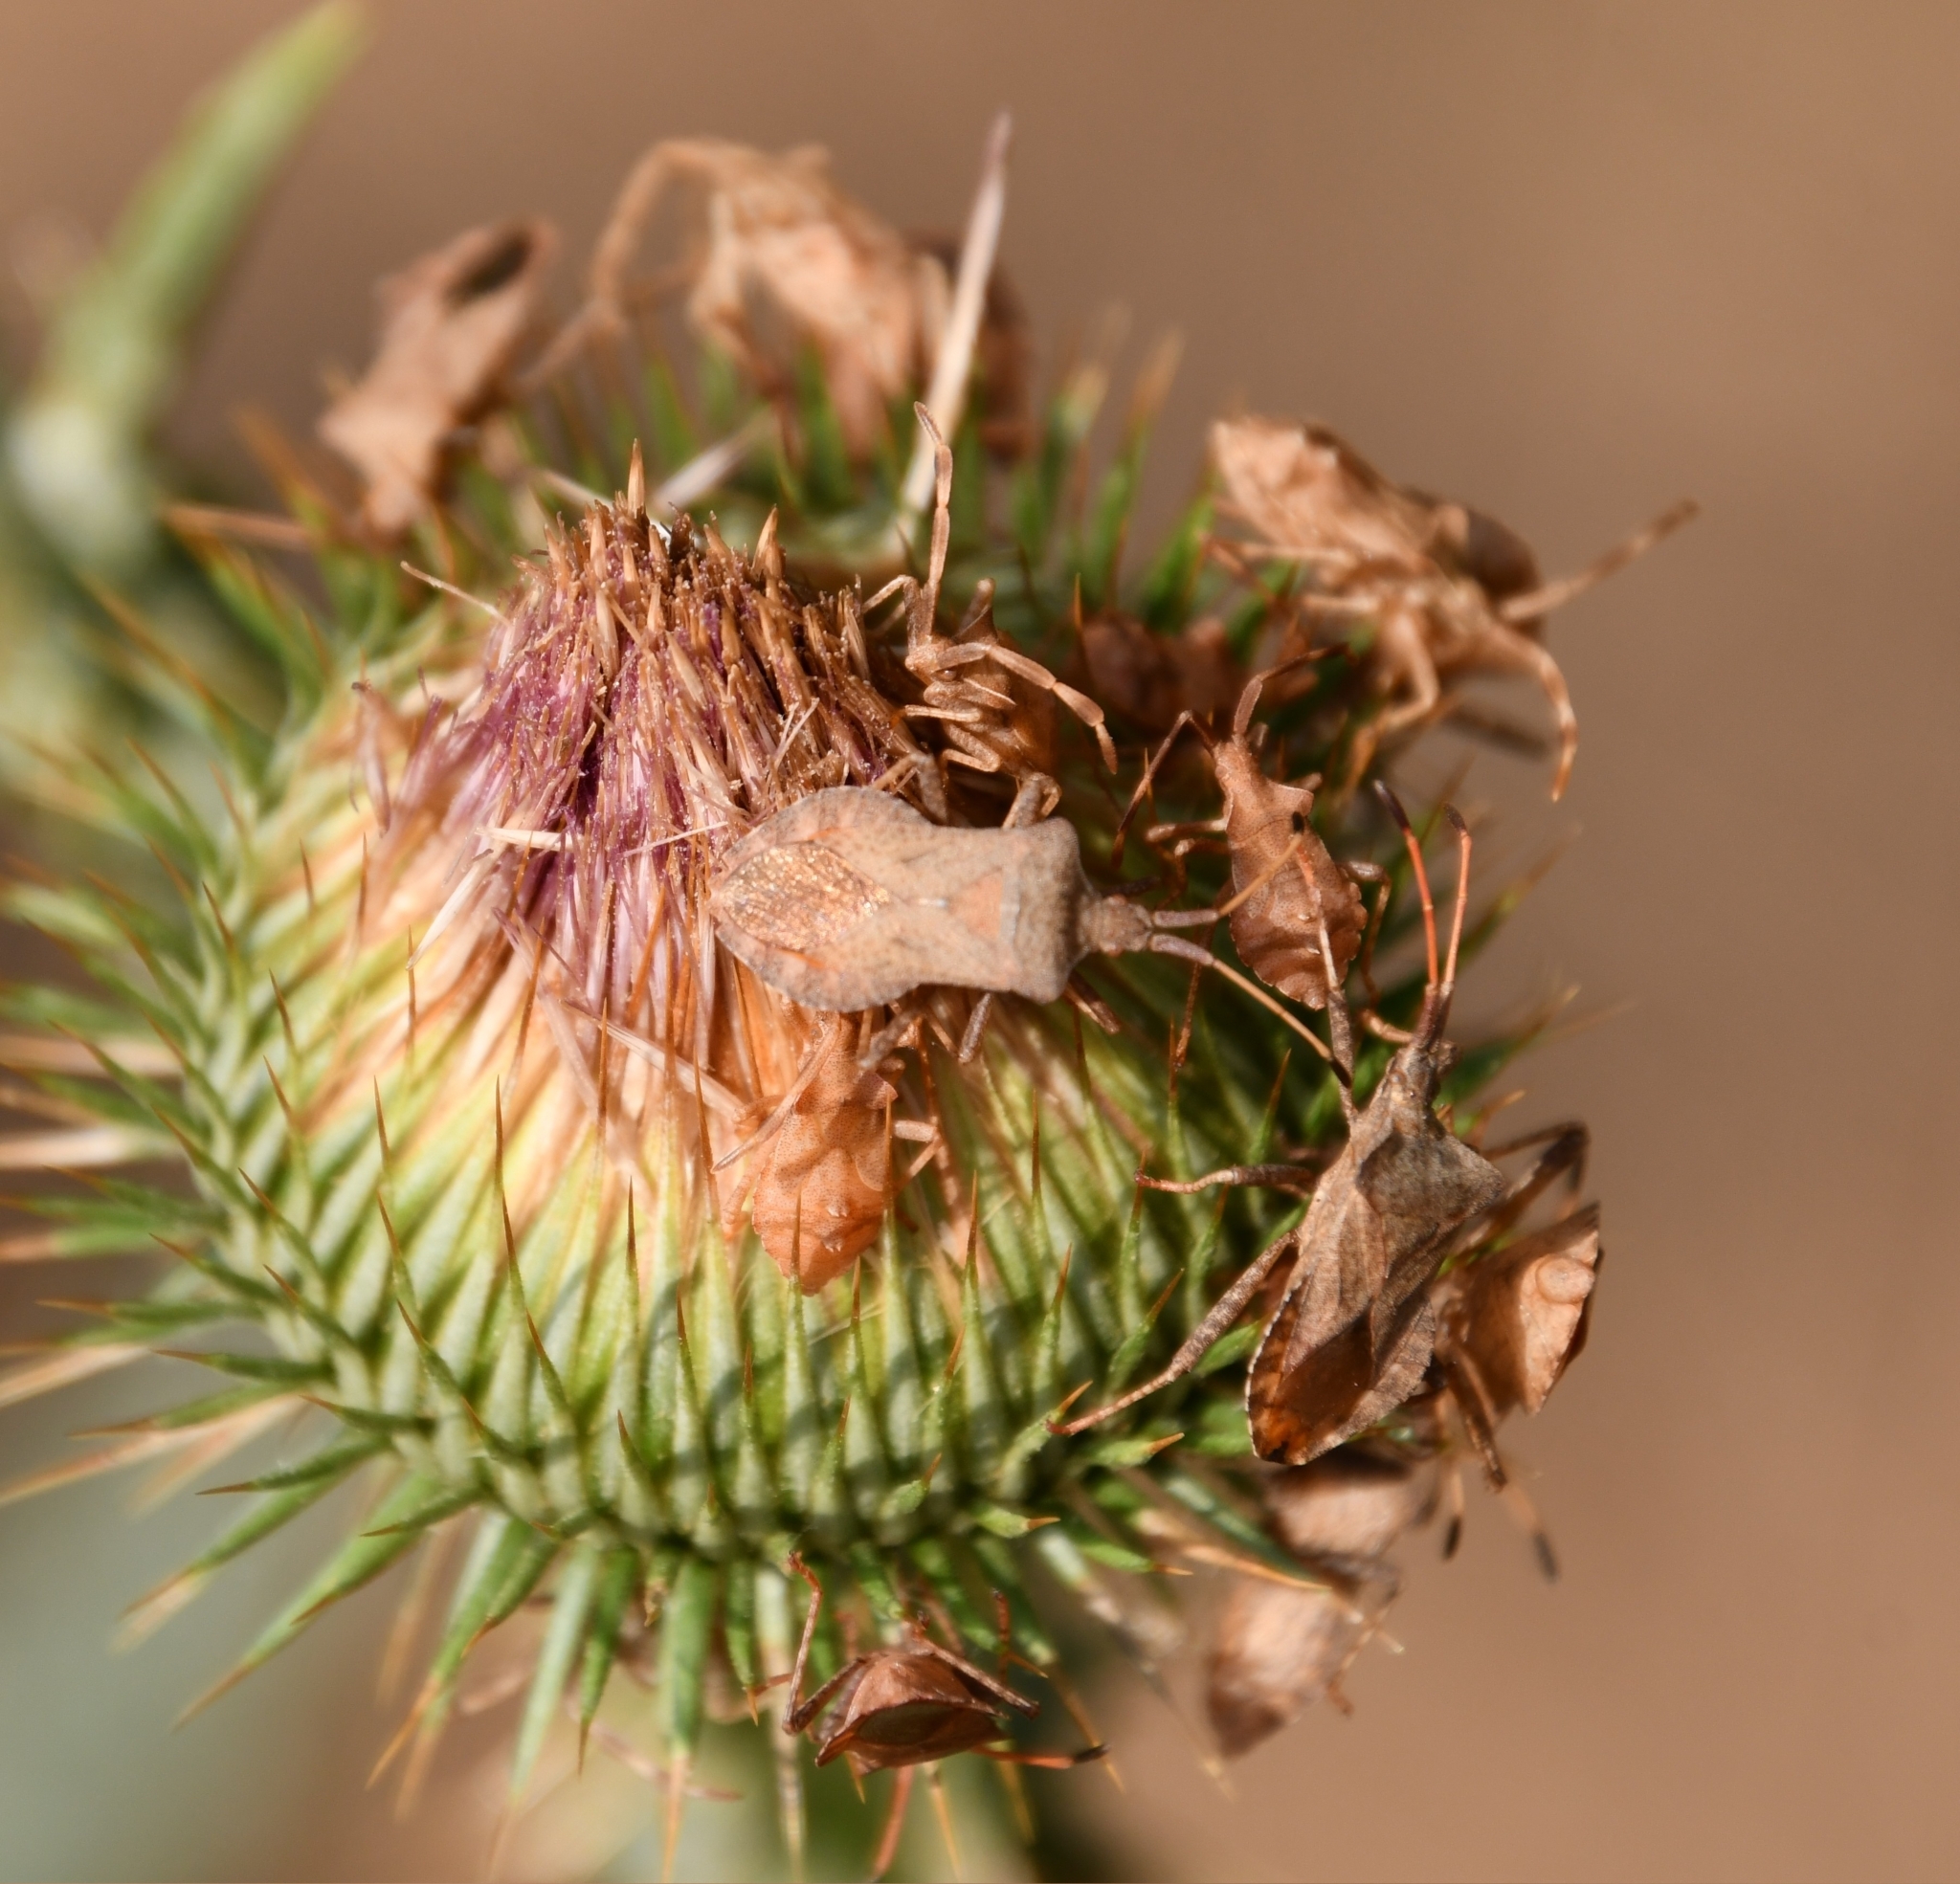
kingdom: Animalia
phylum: Arthropoda
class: Insecta
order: Hemiptera
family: Coreidae
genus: Coreus
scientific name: Coreus marginatus
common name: Dock bug
